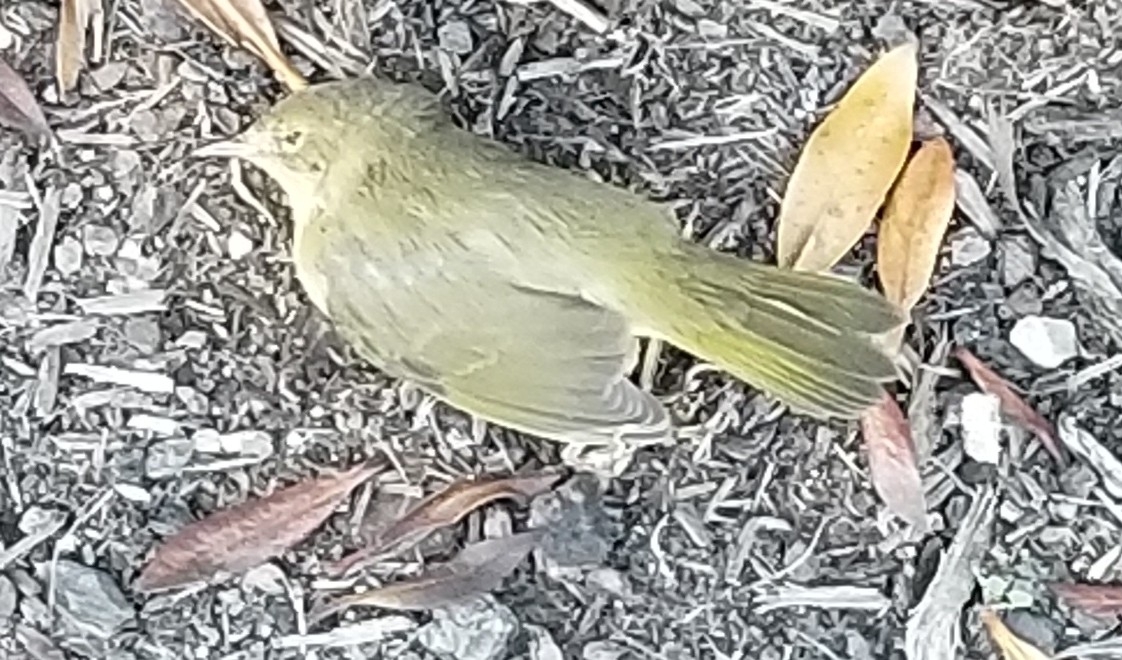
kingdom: Animalia
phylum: Chordata
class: Aves
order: Passeriformes
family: Parulidae
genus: Geothlypis
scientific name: Geothlypis trichas
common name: Common yellowthroat
